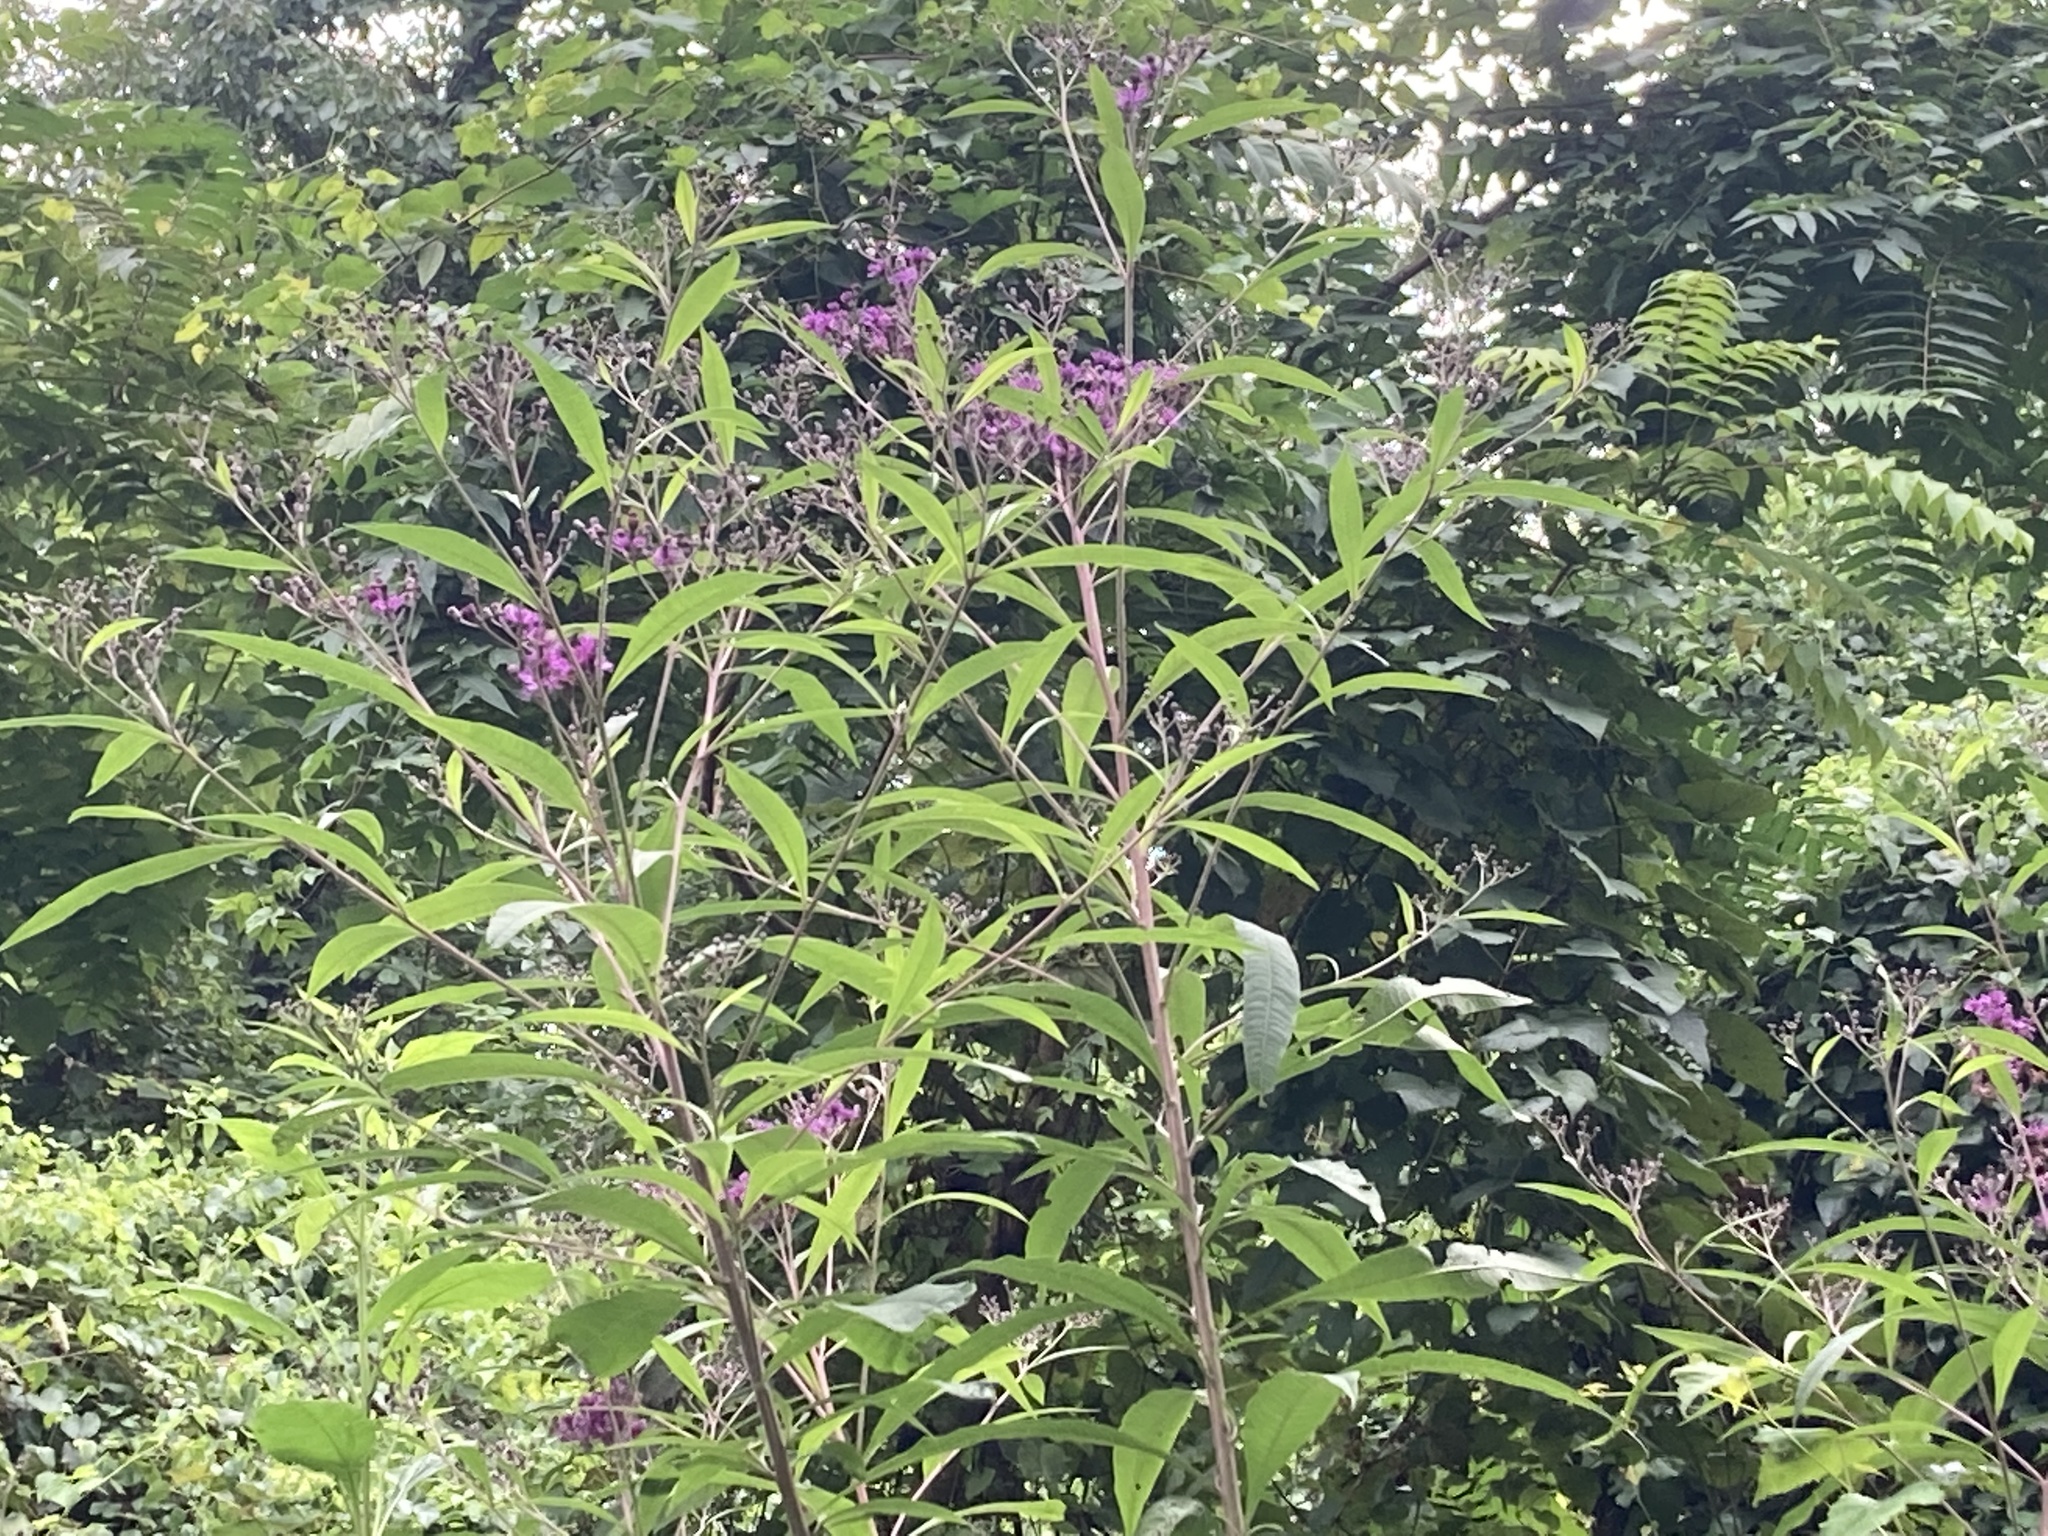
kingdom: Plantae
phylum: Tracheophyta
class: Magnoliopsida
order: Asterales
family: Asteraceae
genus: Vernonia
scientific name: Vernonia gigantea
